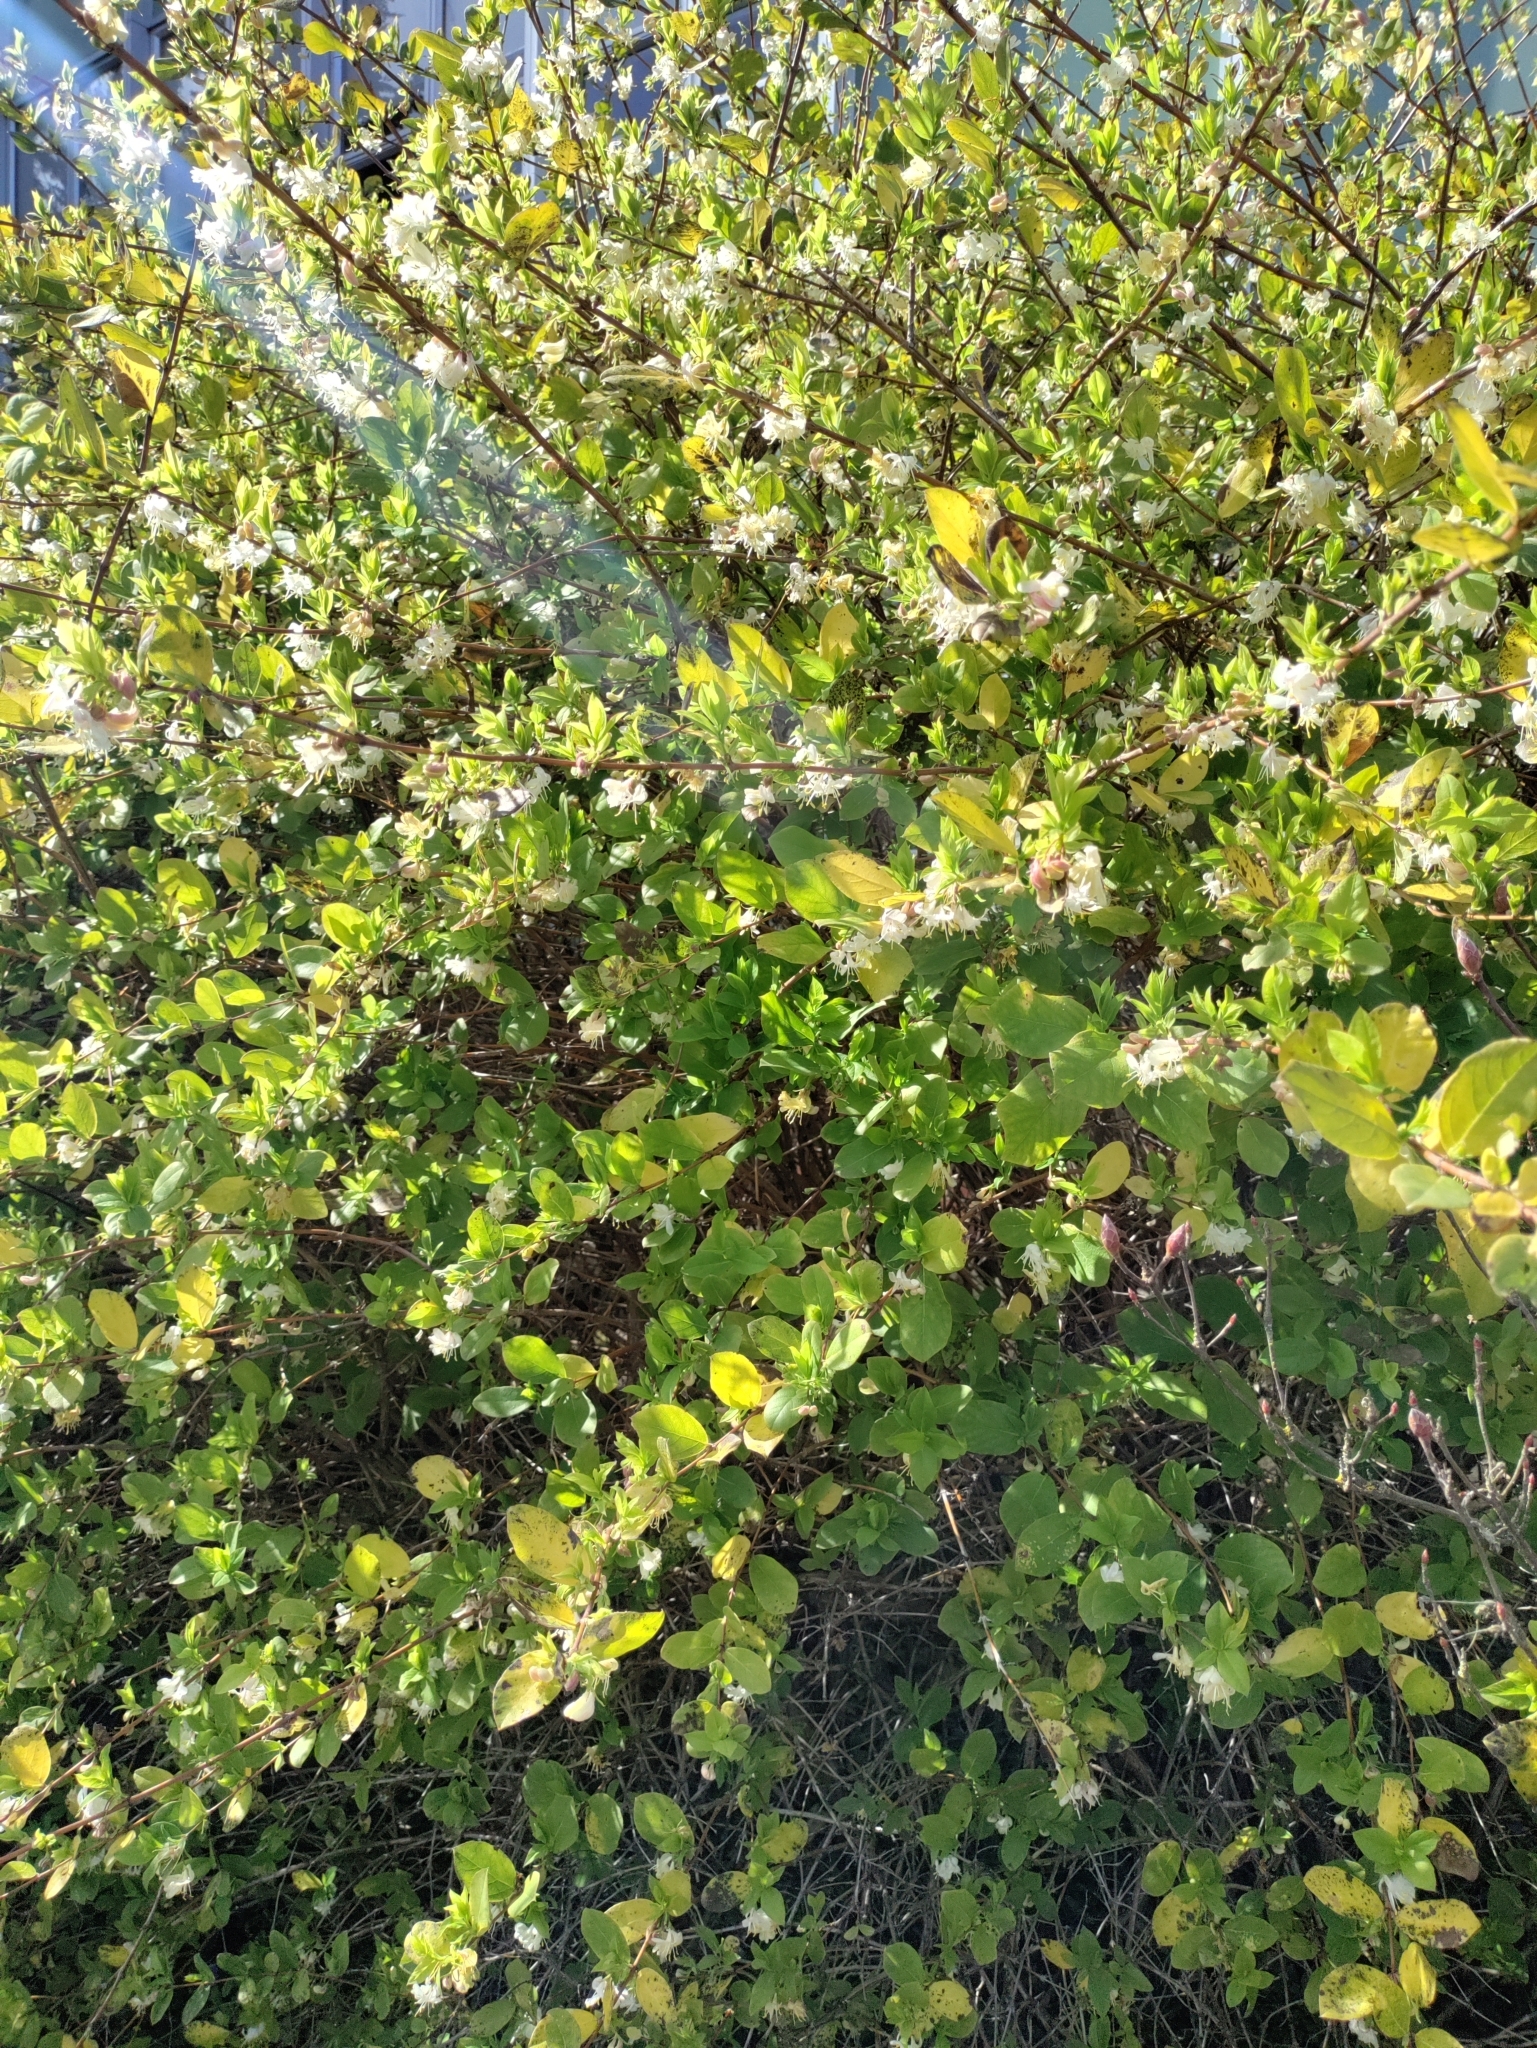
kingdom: Plantae
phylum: Tracheophyta
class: Magnoliopsida
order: Dipsacales
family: Caprifoliaceae
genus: Lonicera
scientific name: Lonicera fragrantissima
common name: Fragrant honeysuckle
